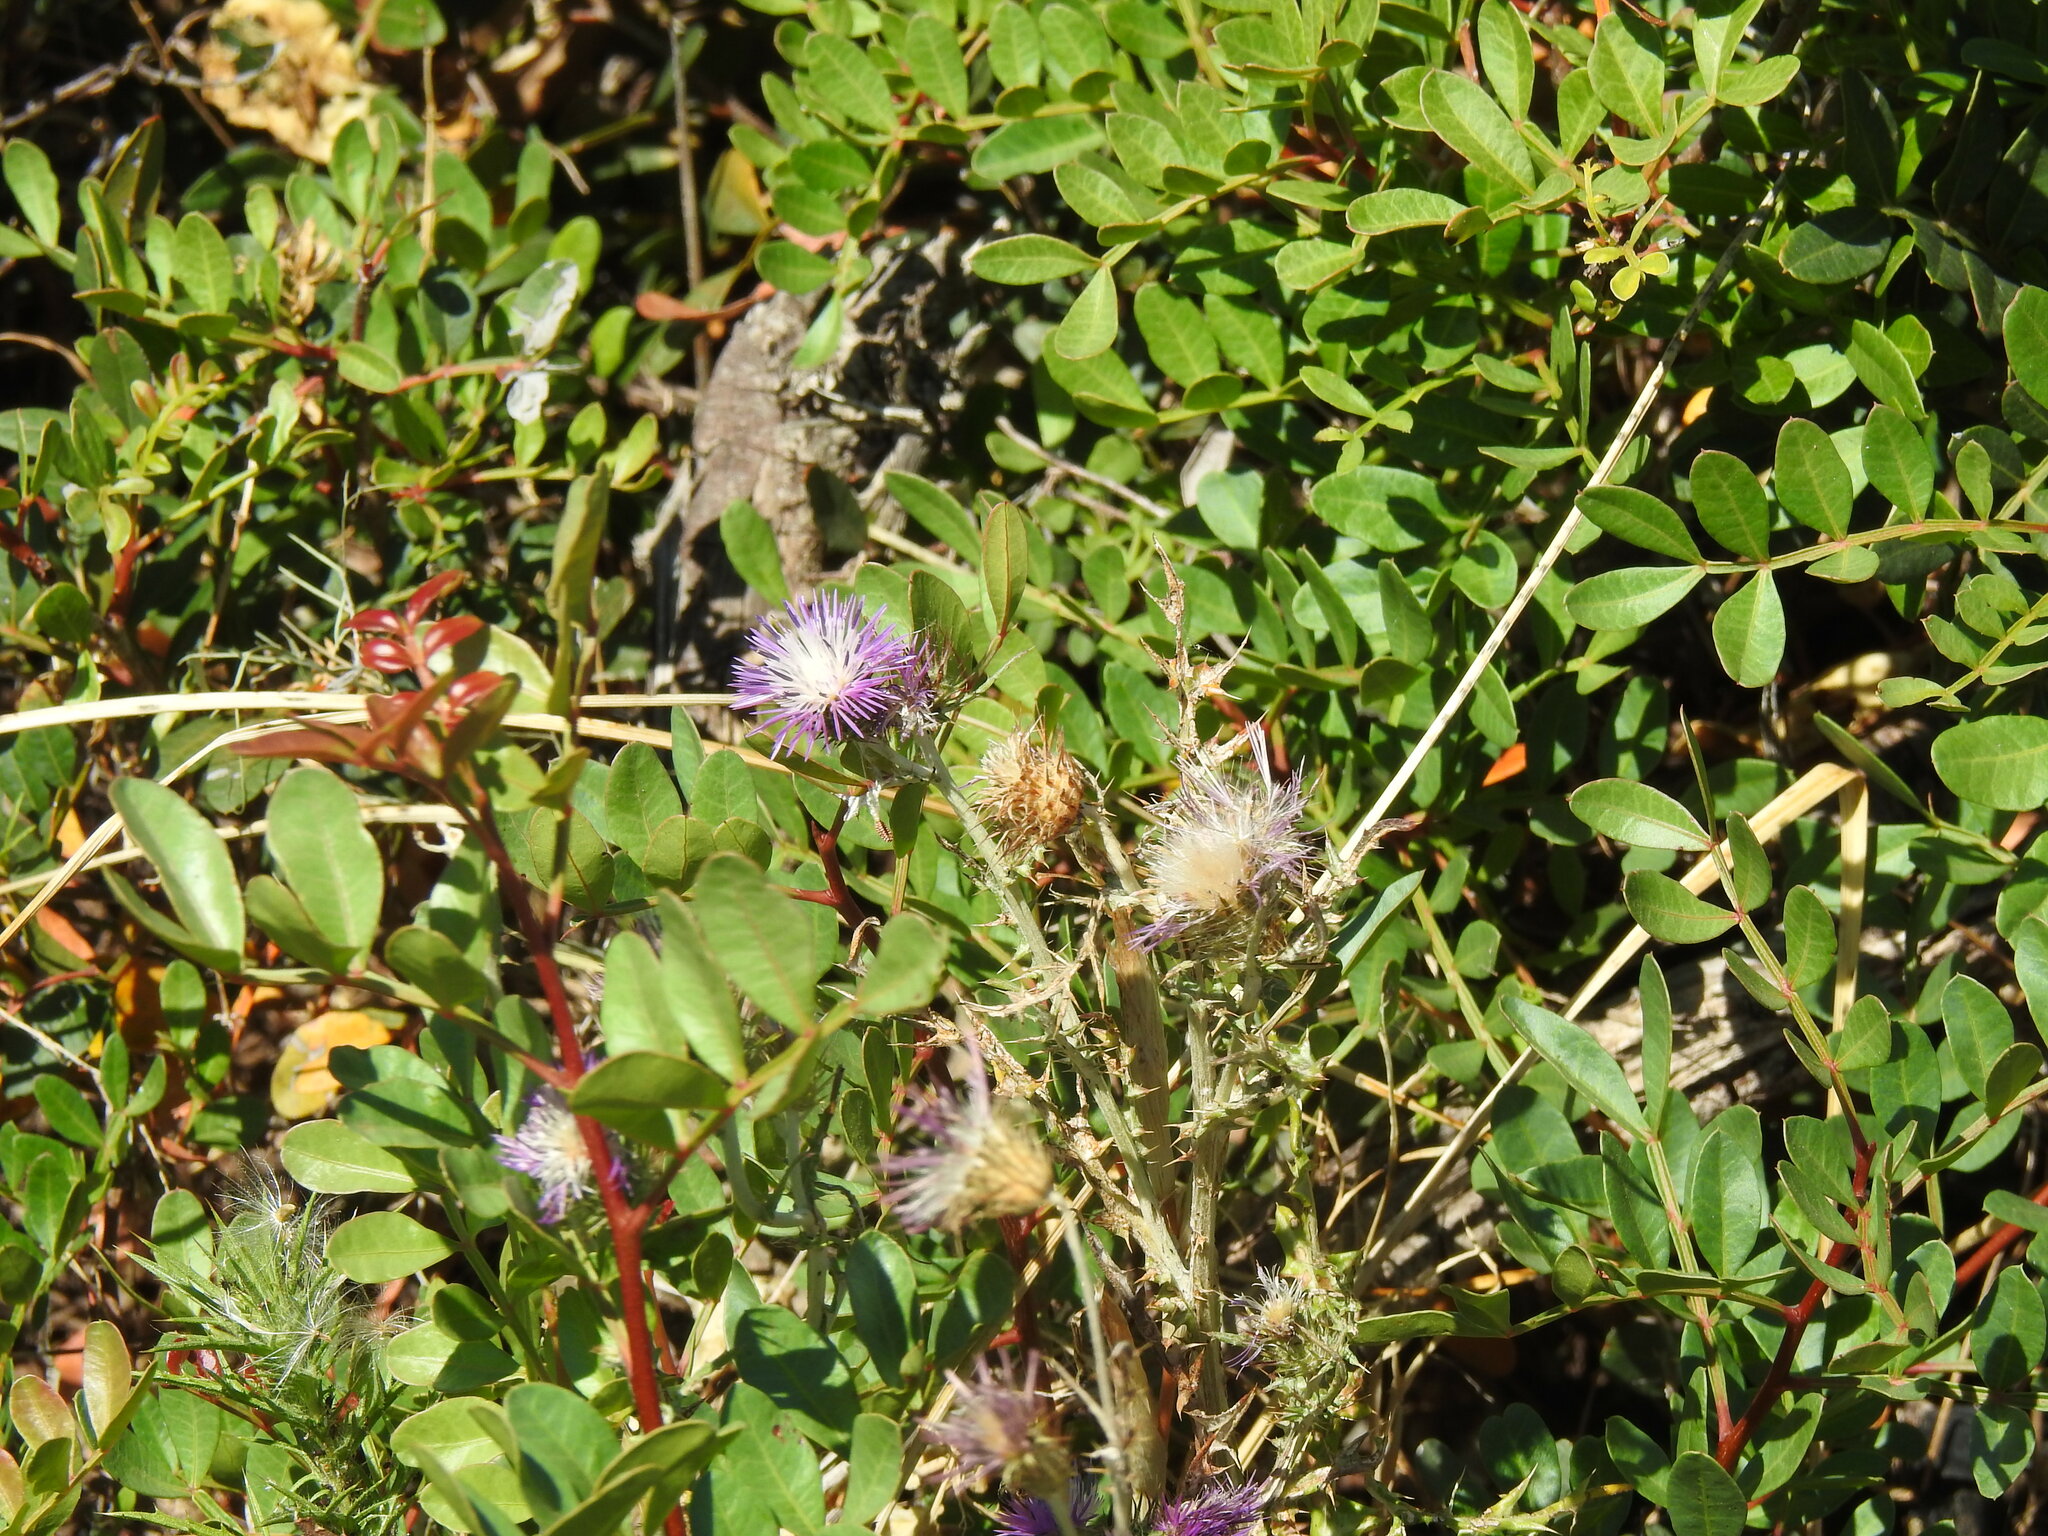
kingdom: Plantae
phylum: Tracheophyta
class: Magnoliopsida
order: Asterales
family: Asteraceae
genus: Galactites
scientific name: Galactites tomentosa
